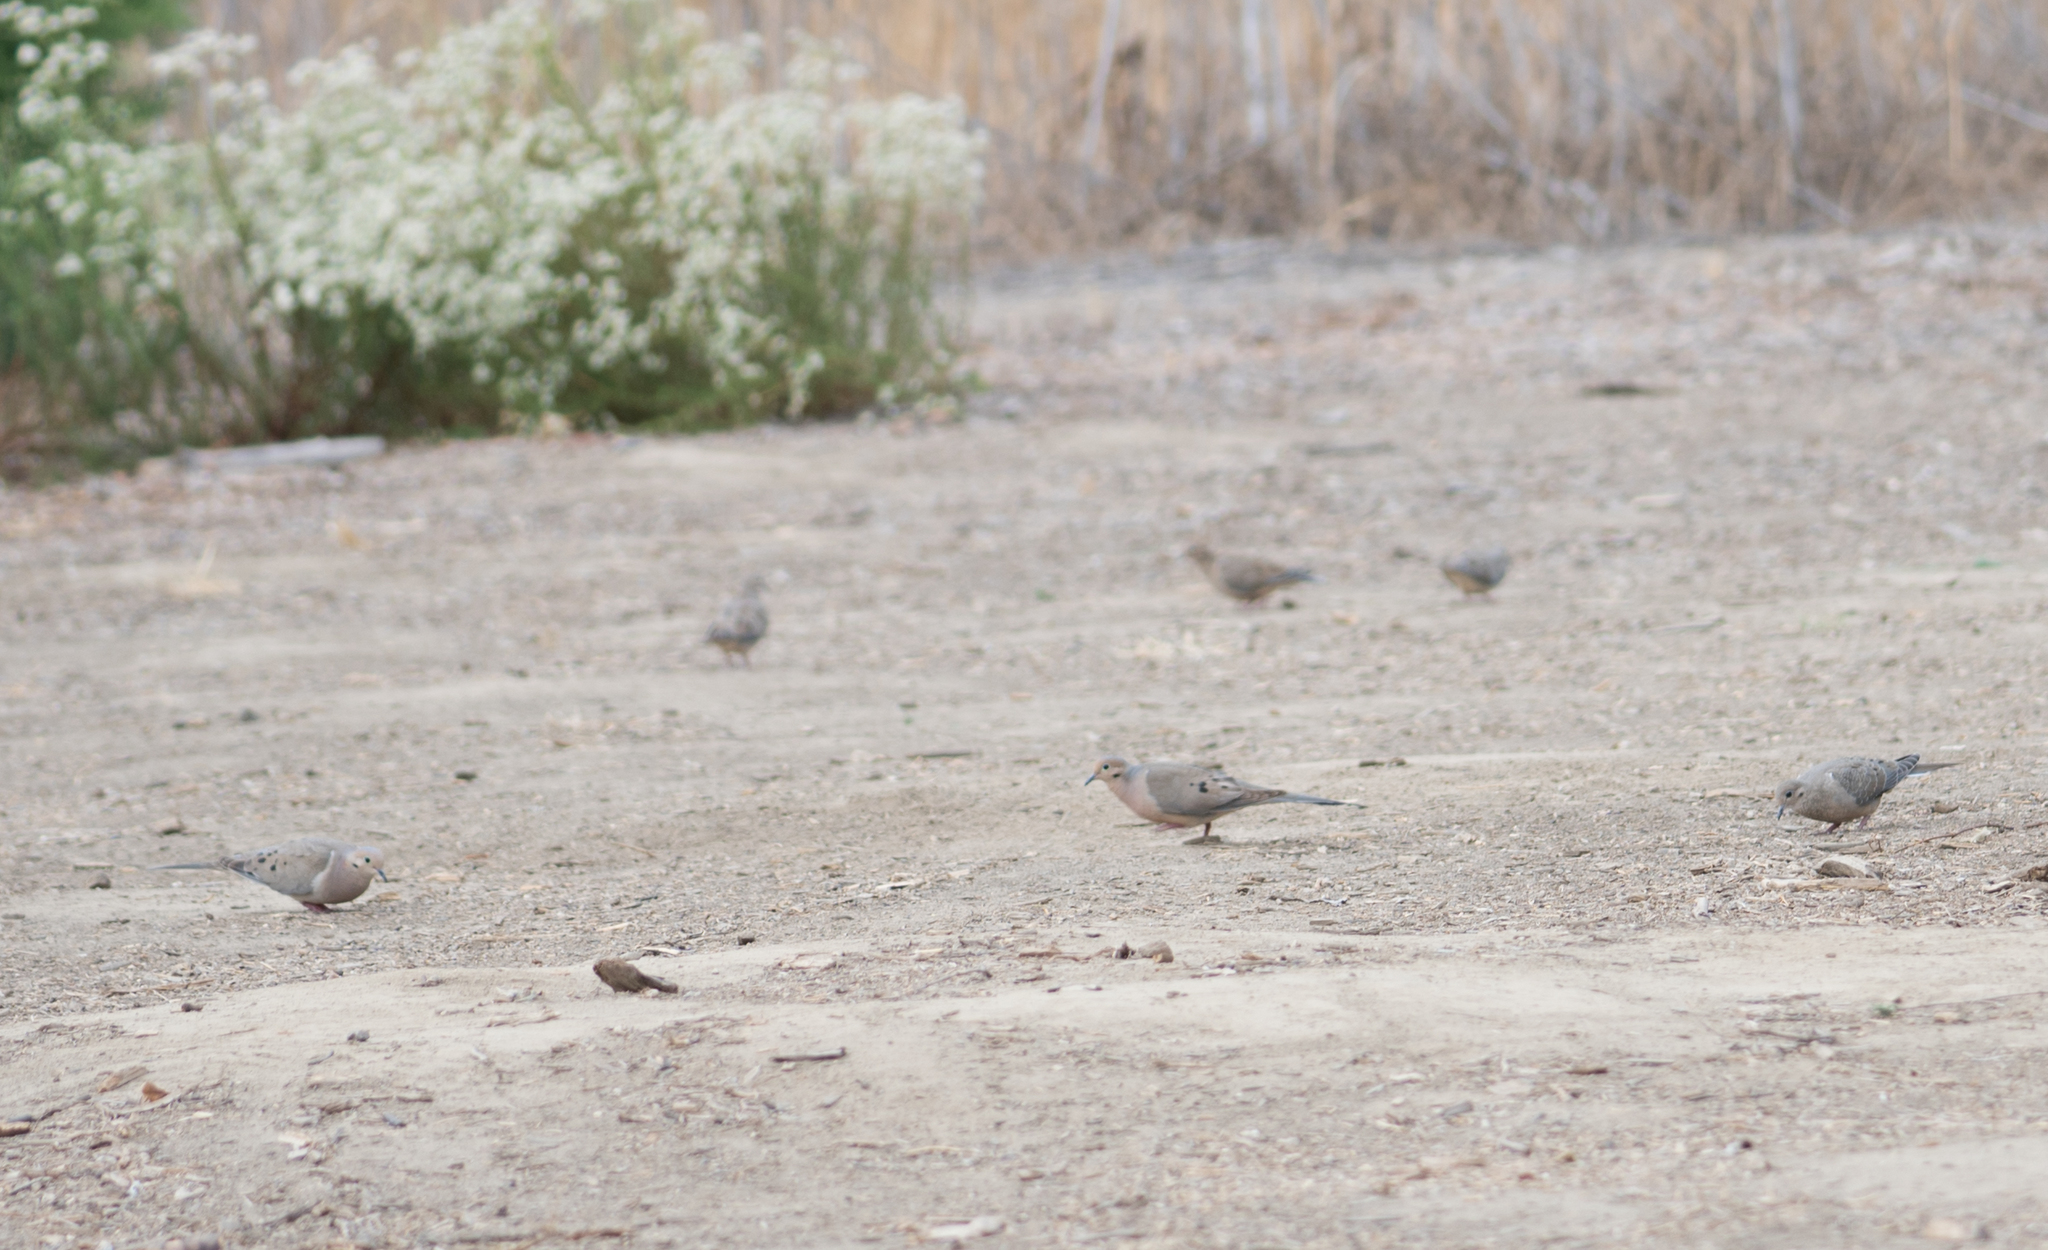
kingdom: Animalia
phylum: Chordata
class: Aves
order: Columbiformes
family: Columbidae
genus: Zenaida
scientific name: Zenaida macroura
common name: Mourning dove
